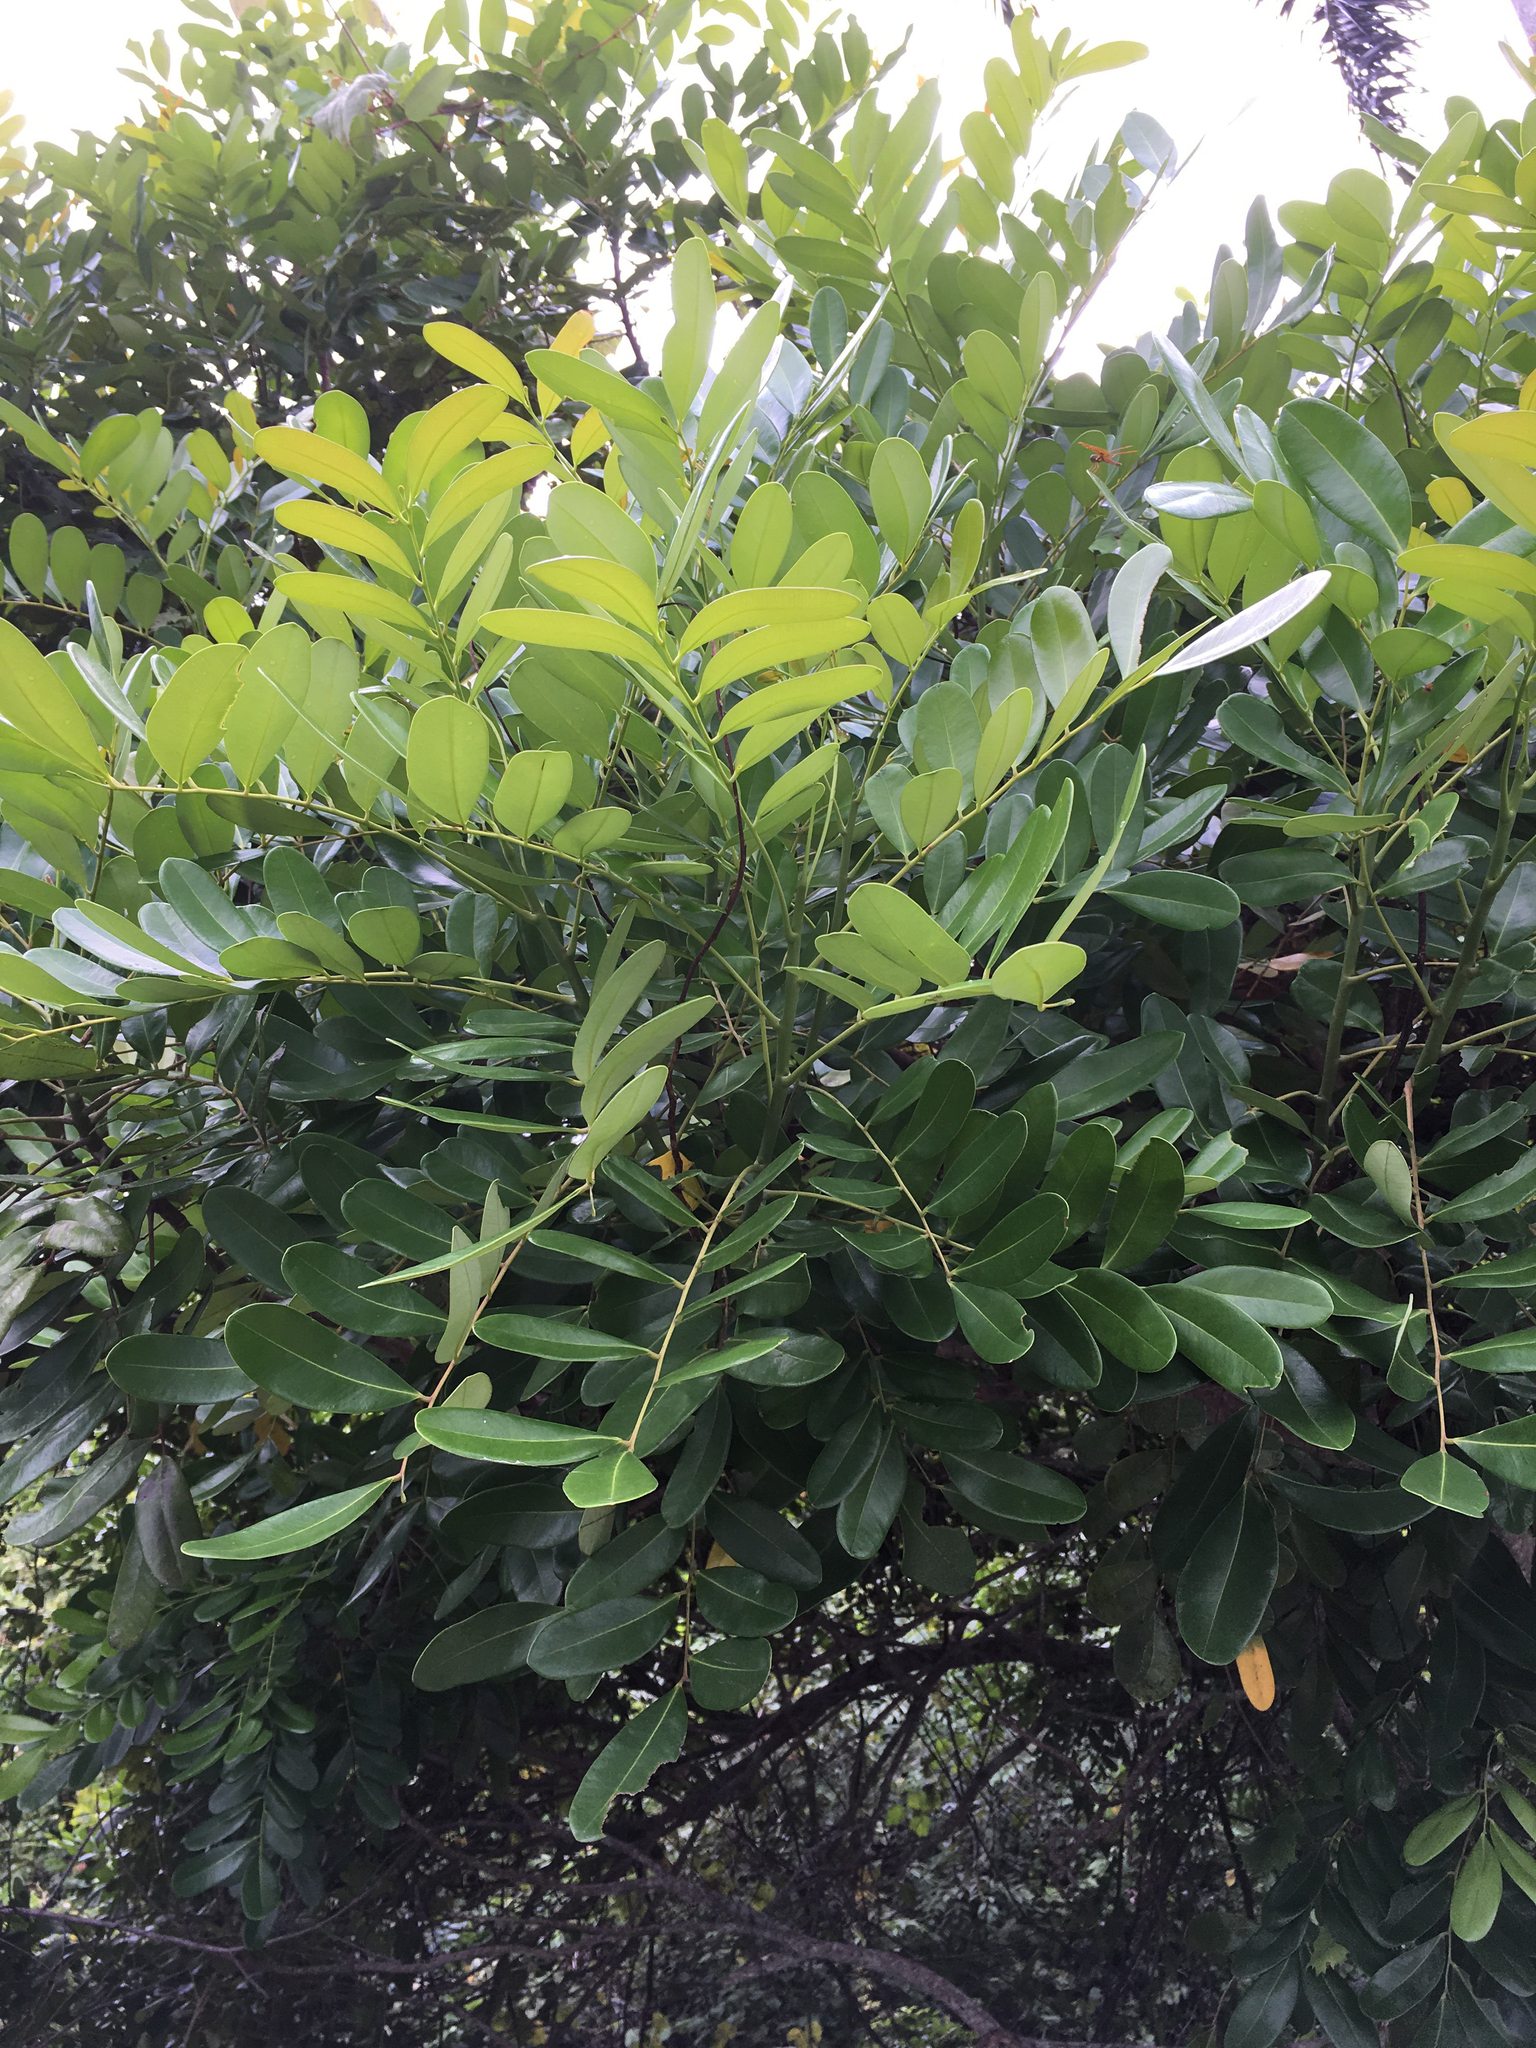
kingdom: Plantae
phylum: Tracheophyta
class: Magnoliopsida
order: Sapindales
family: Simaroubaceae
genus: Simarouba
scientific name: Simarouba glauca
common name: Dysentery-bark
